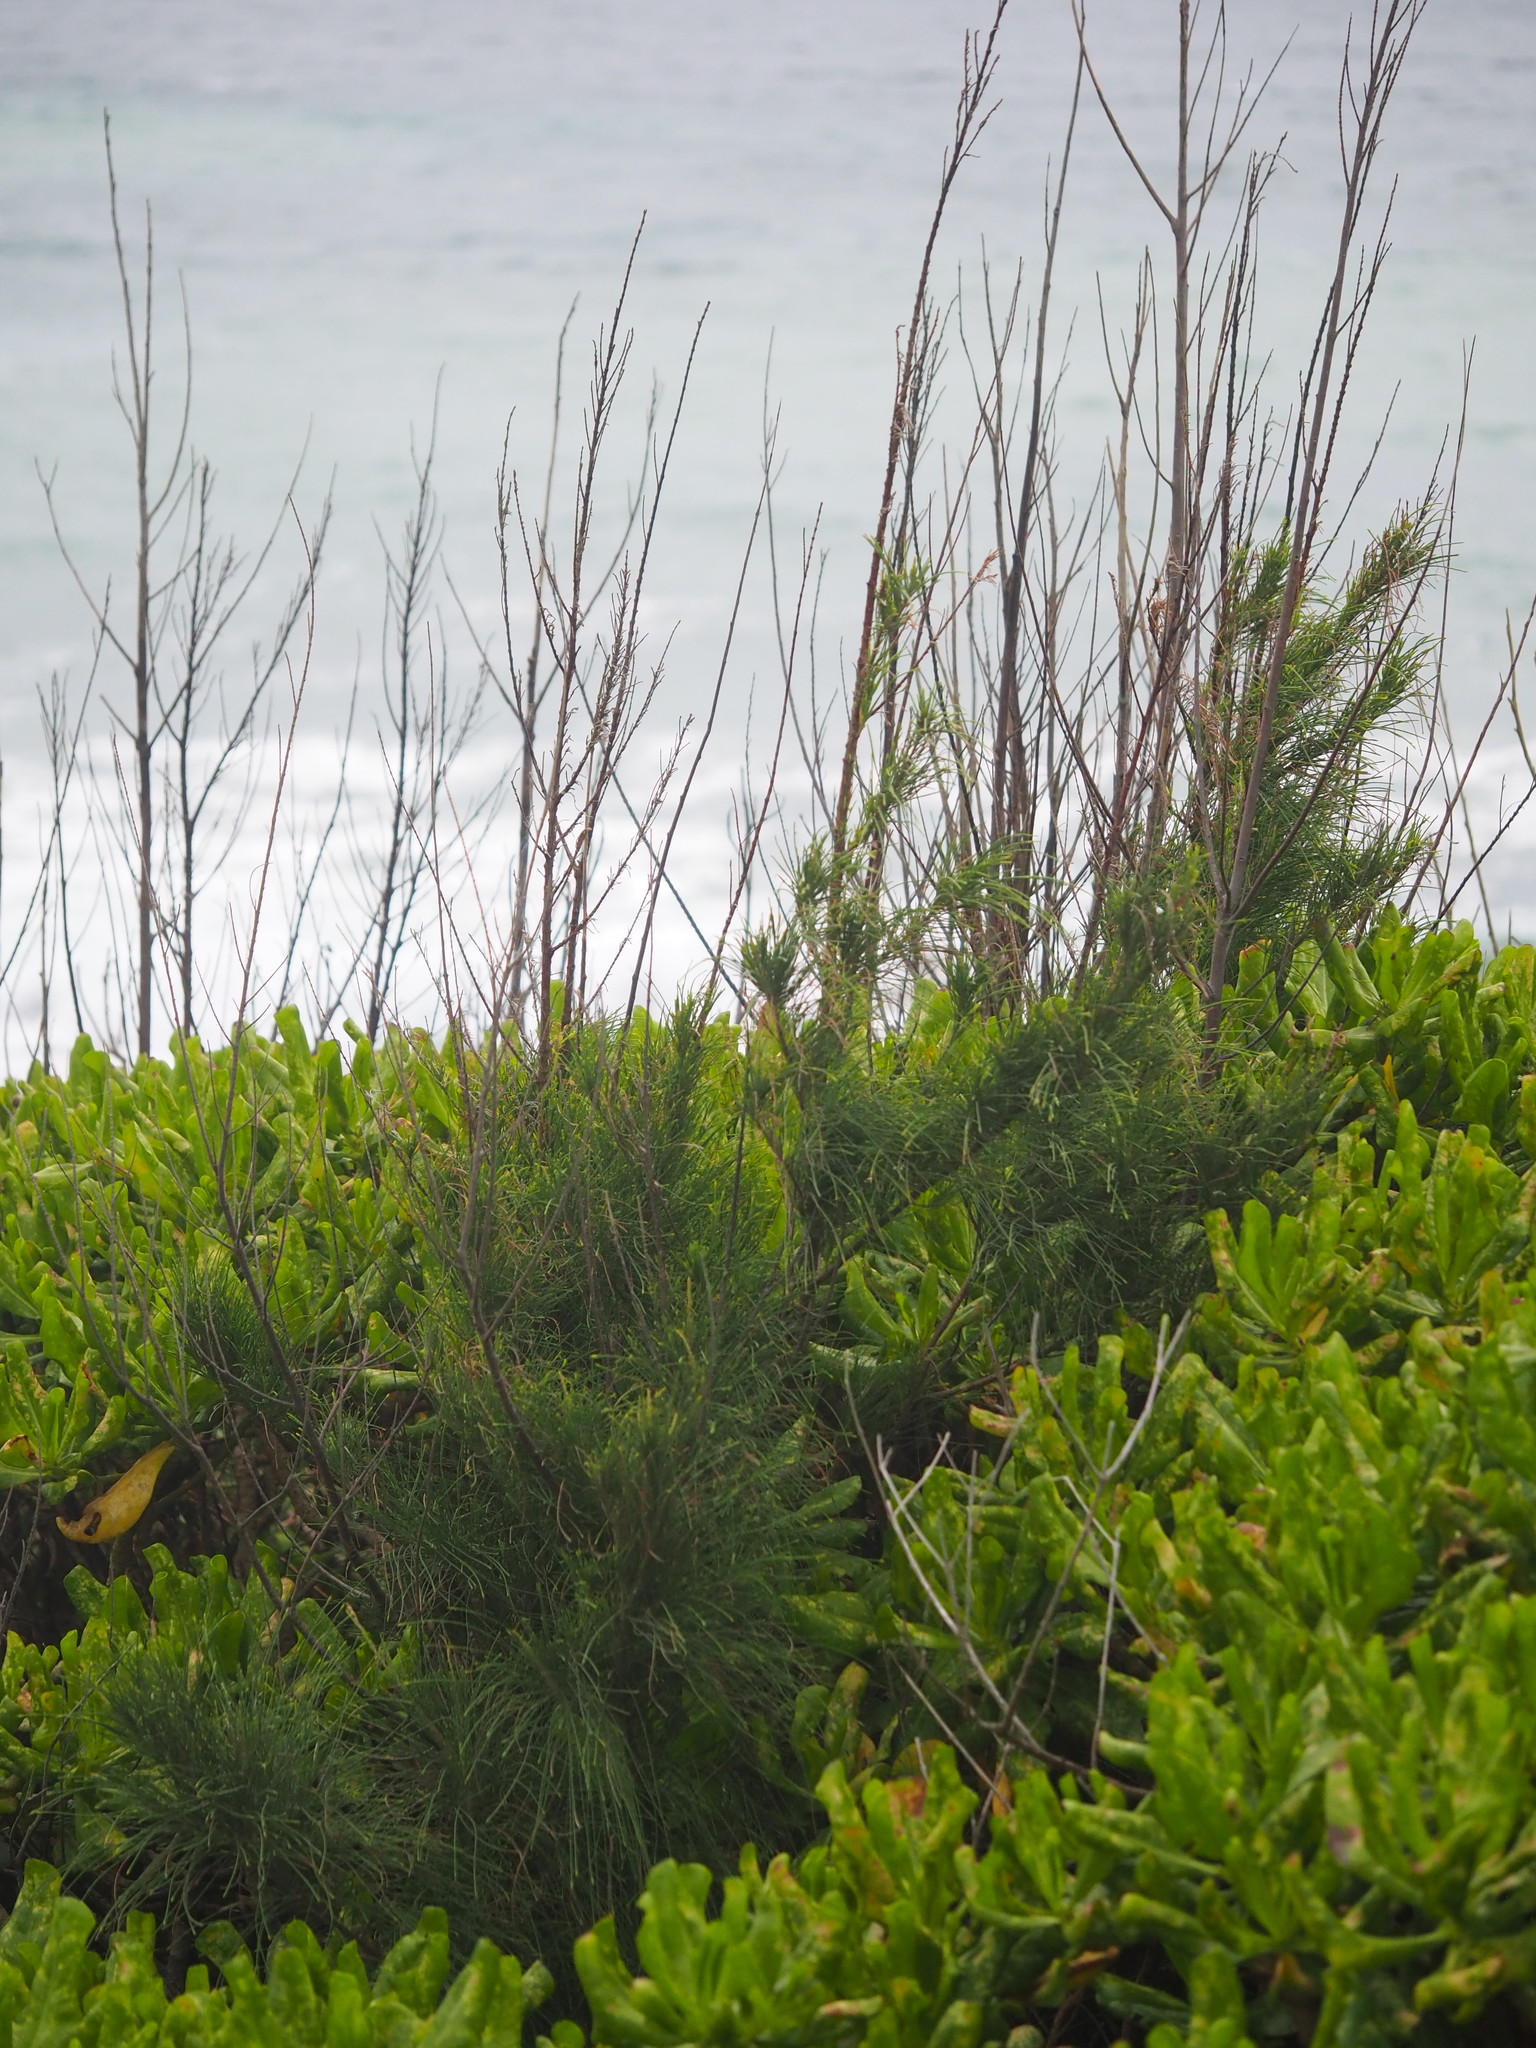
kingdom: Plantae
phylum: Tracheophyta
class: Magnoliopsida
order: Fagales
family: Casuarinaceae
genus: Casuarina
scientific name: Casuarina equisetifolia
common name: Beach sheoak
